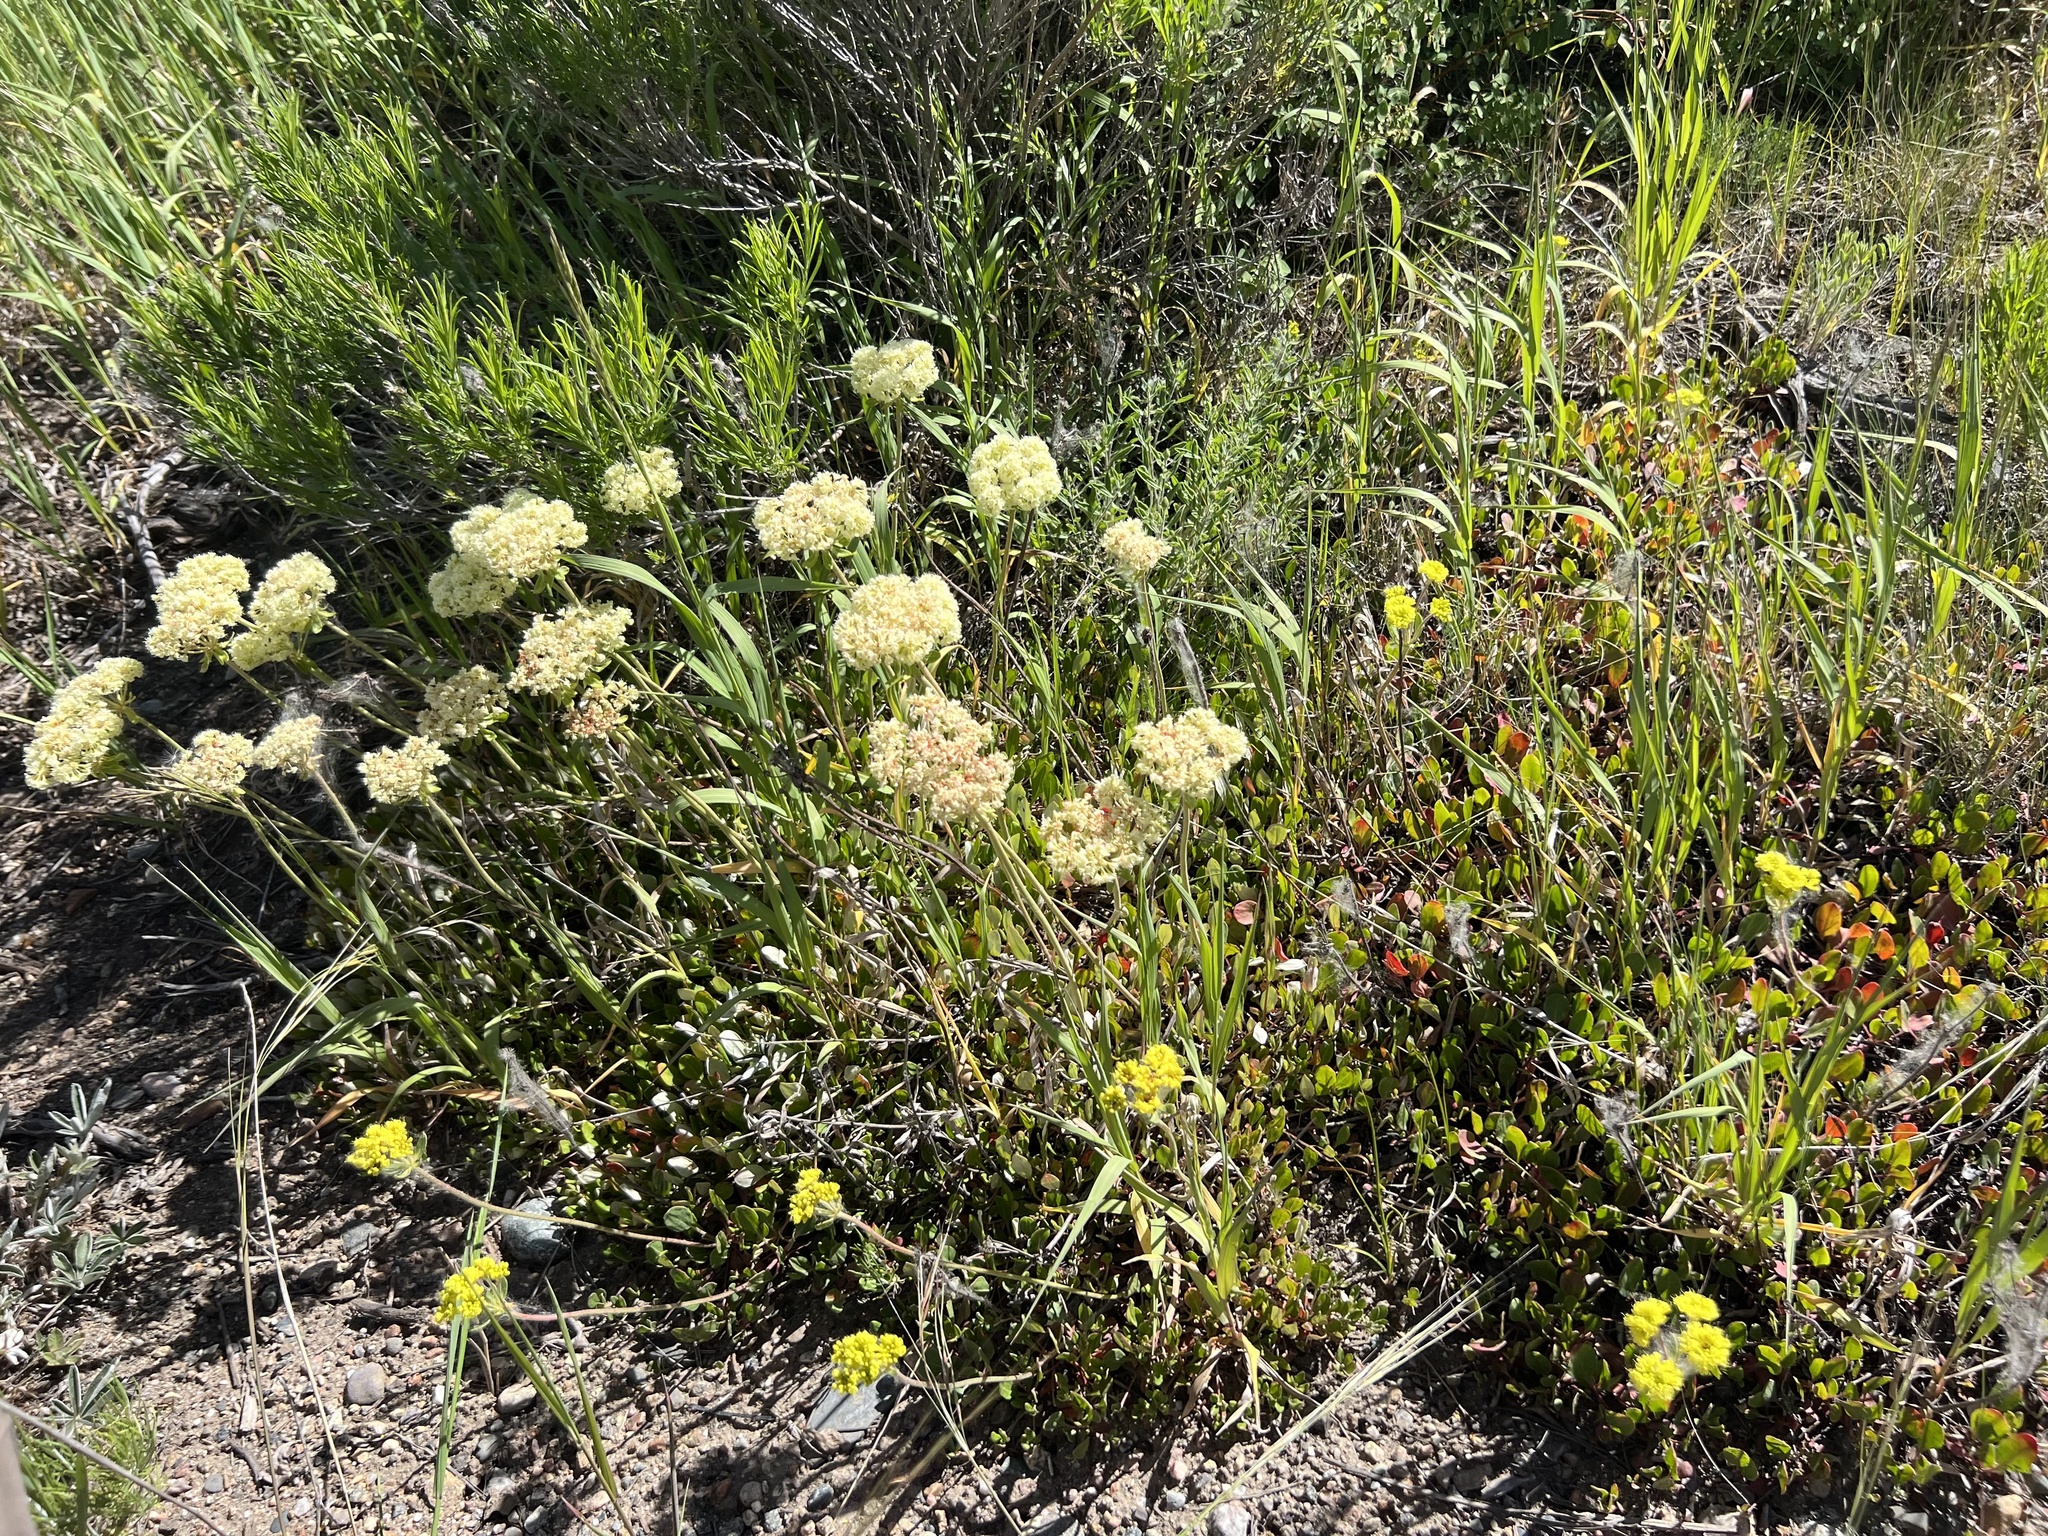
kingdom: Plantae
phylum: Tracheophyta
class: Magnoliopsida
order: Caryophyllales
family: Polygonaceae
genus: Eriogonum
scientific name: Eriogonum umbellatum
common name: Sulfur-buckwheat
